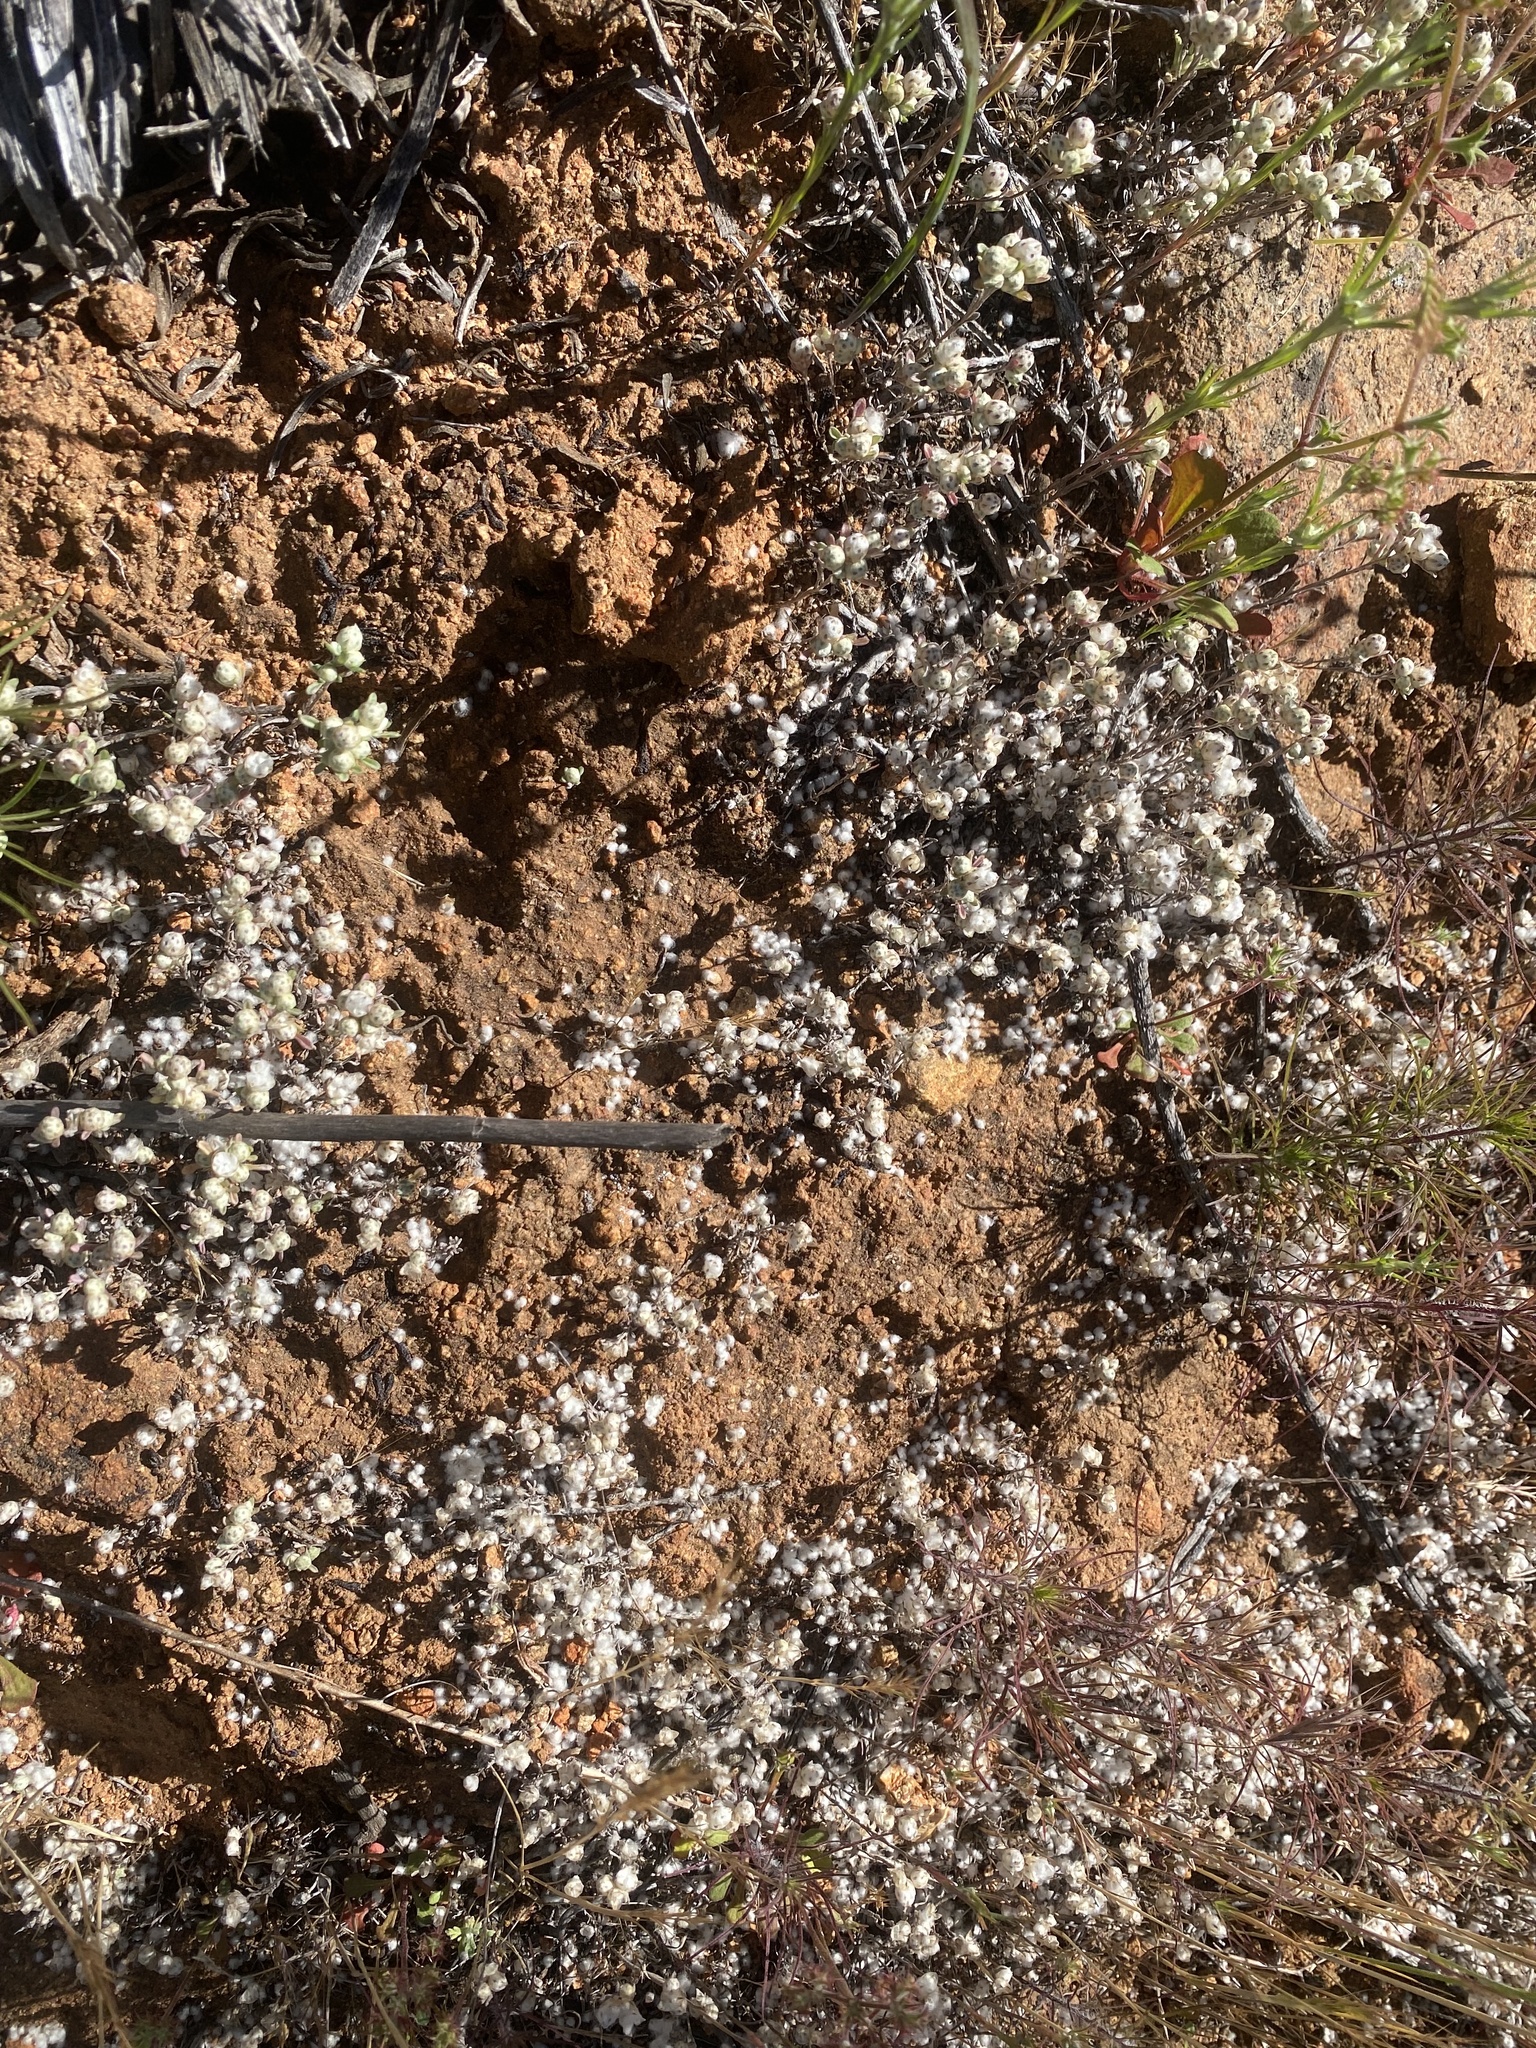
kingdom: Plantae
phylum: Tracheophyta
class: Magnoliopsida
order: Asterales
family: Asteraceae
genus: Stylocline
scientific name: Stylocline gnaphaloides
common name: Everlasting nest-straw
